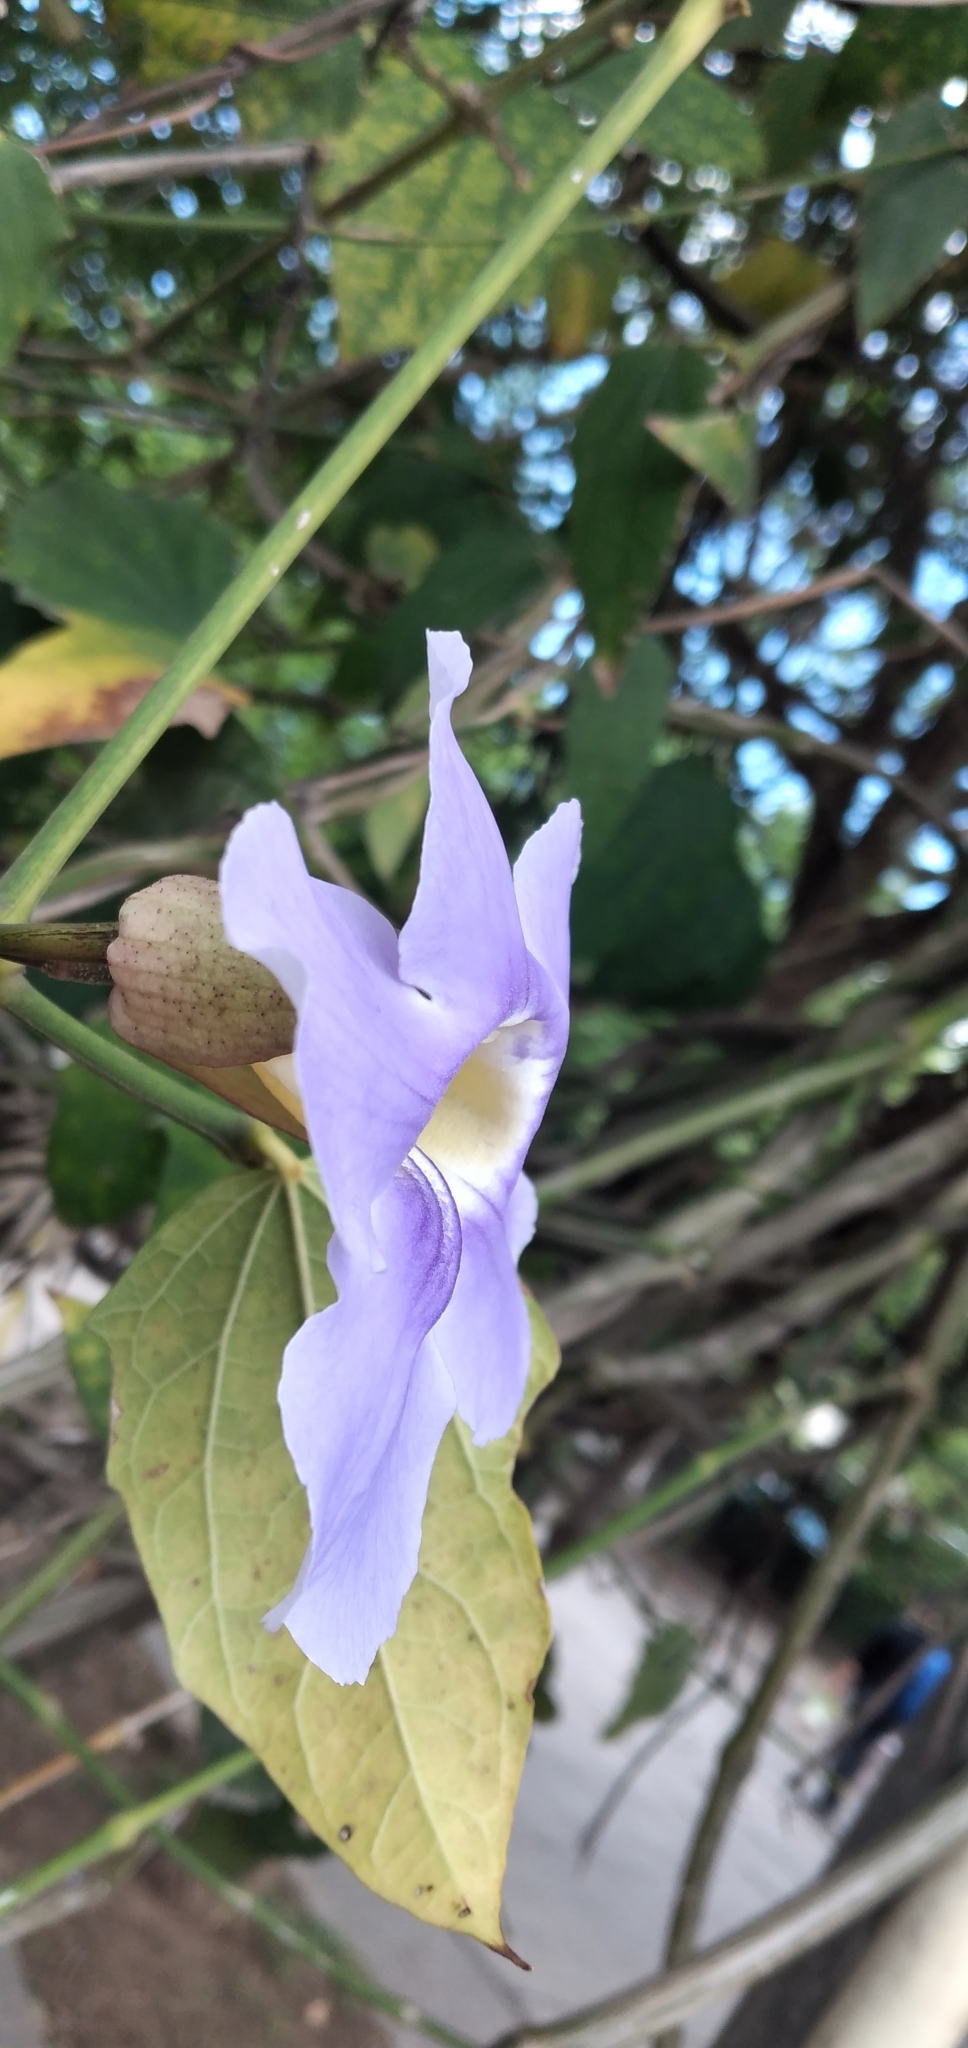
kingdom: Plantae
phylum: Tracheophyta
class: Magnoliopsida
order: Lamiales
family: Acanthaceae
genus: Thunbergia
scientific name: Thunbergia laurifolia
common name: Laurel-leaved thunbergia
